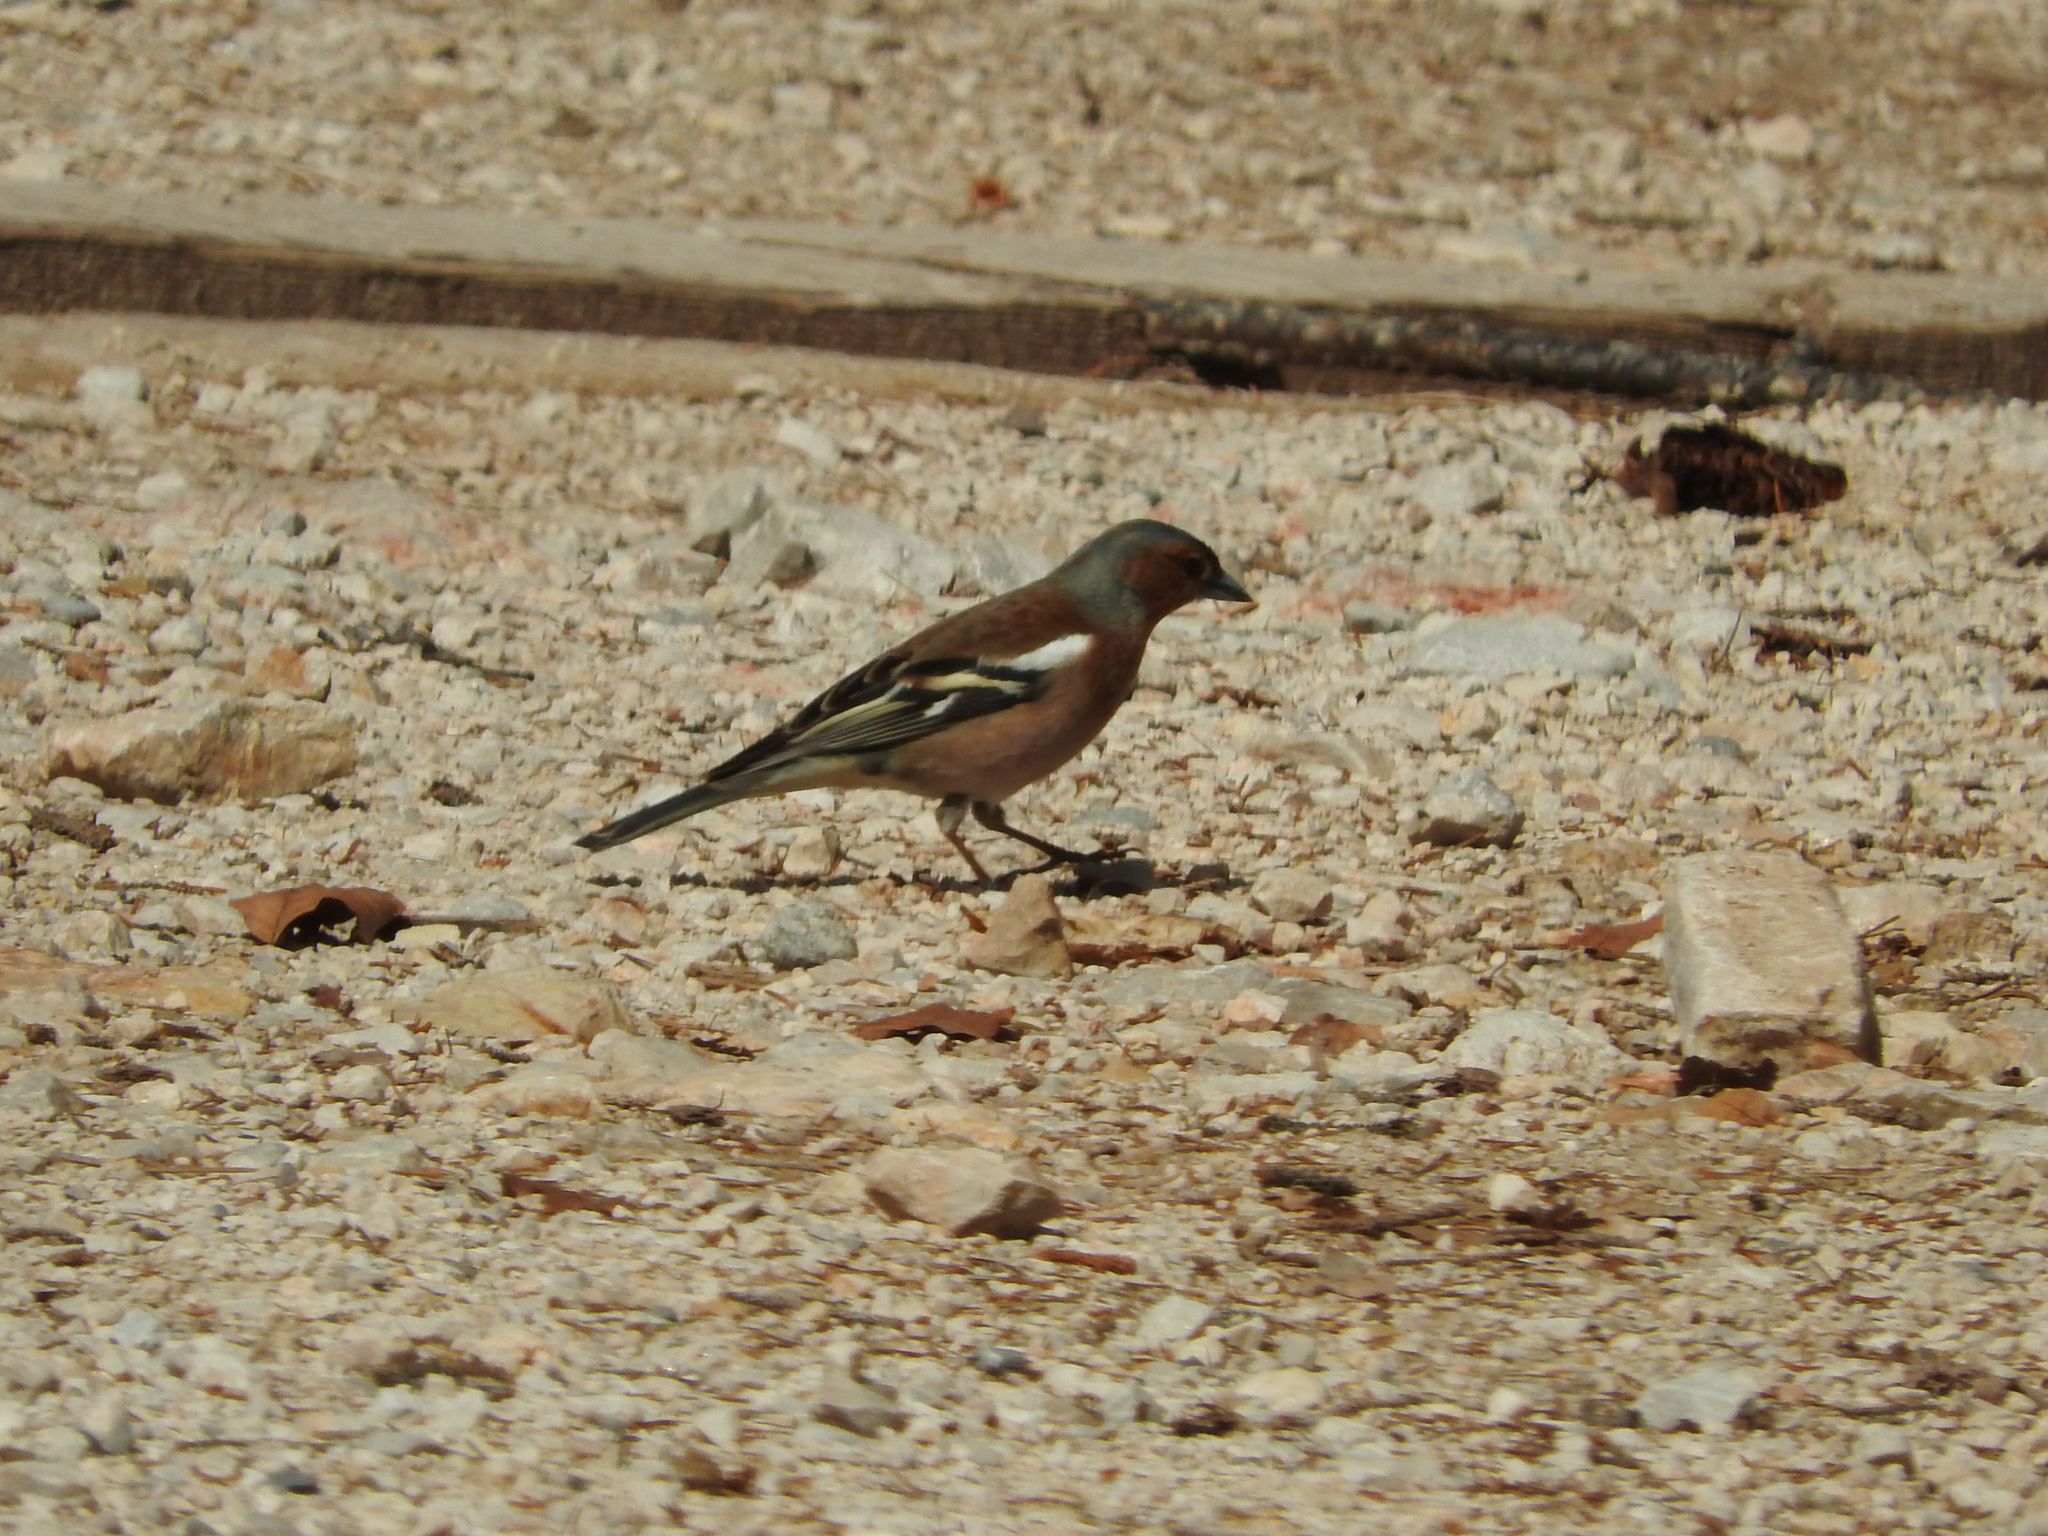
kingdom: Animalia
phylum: Chordata
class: Aves
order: Passeriformes
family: Fringillidae
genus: Fringilla
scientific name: Fringilla coelebs
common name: Common chaffinch
